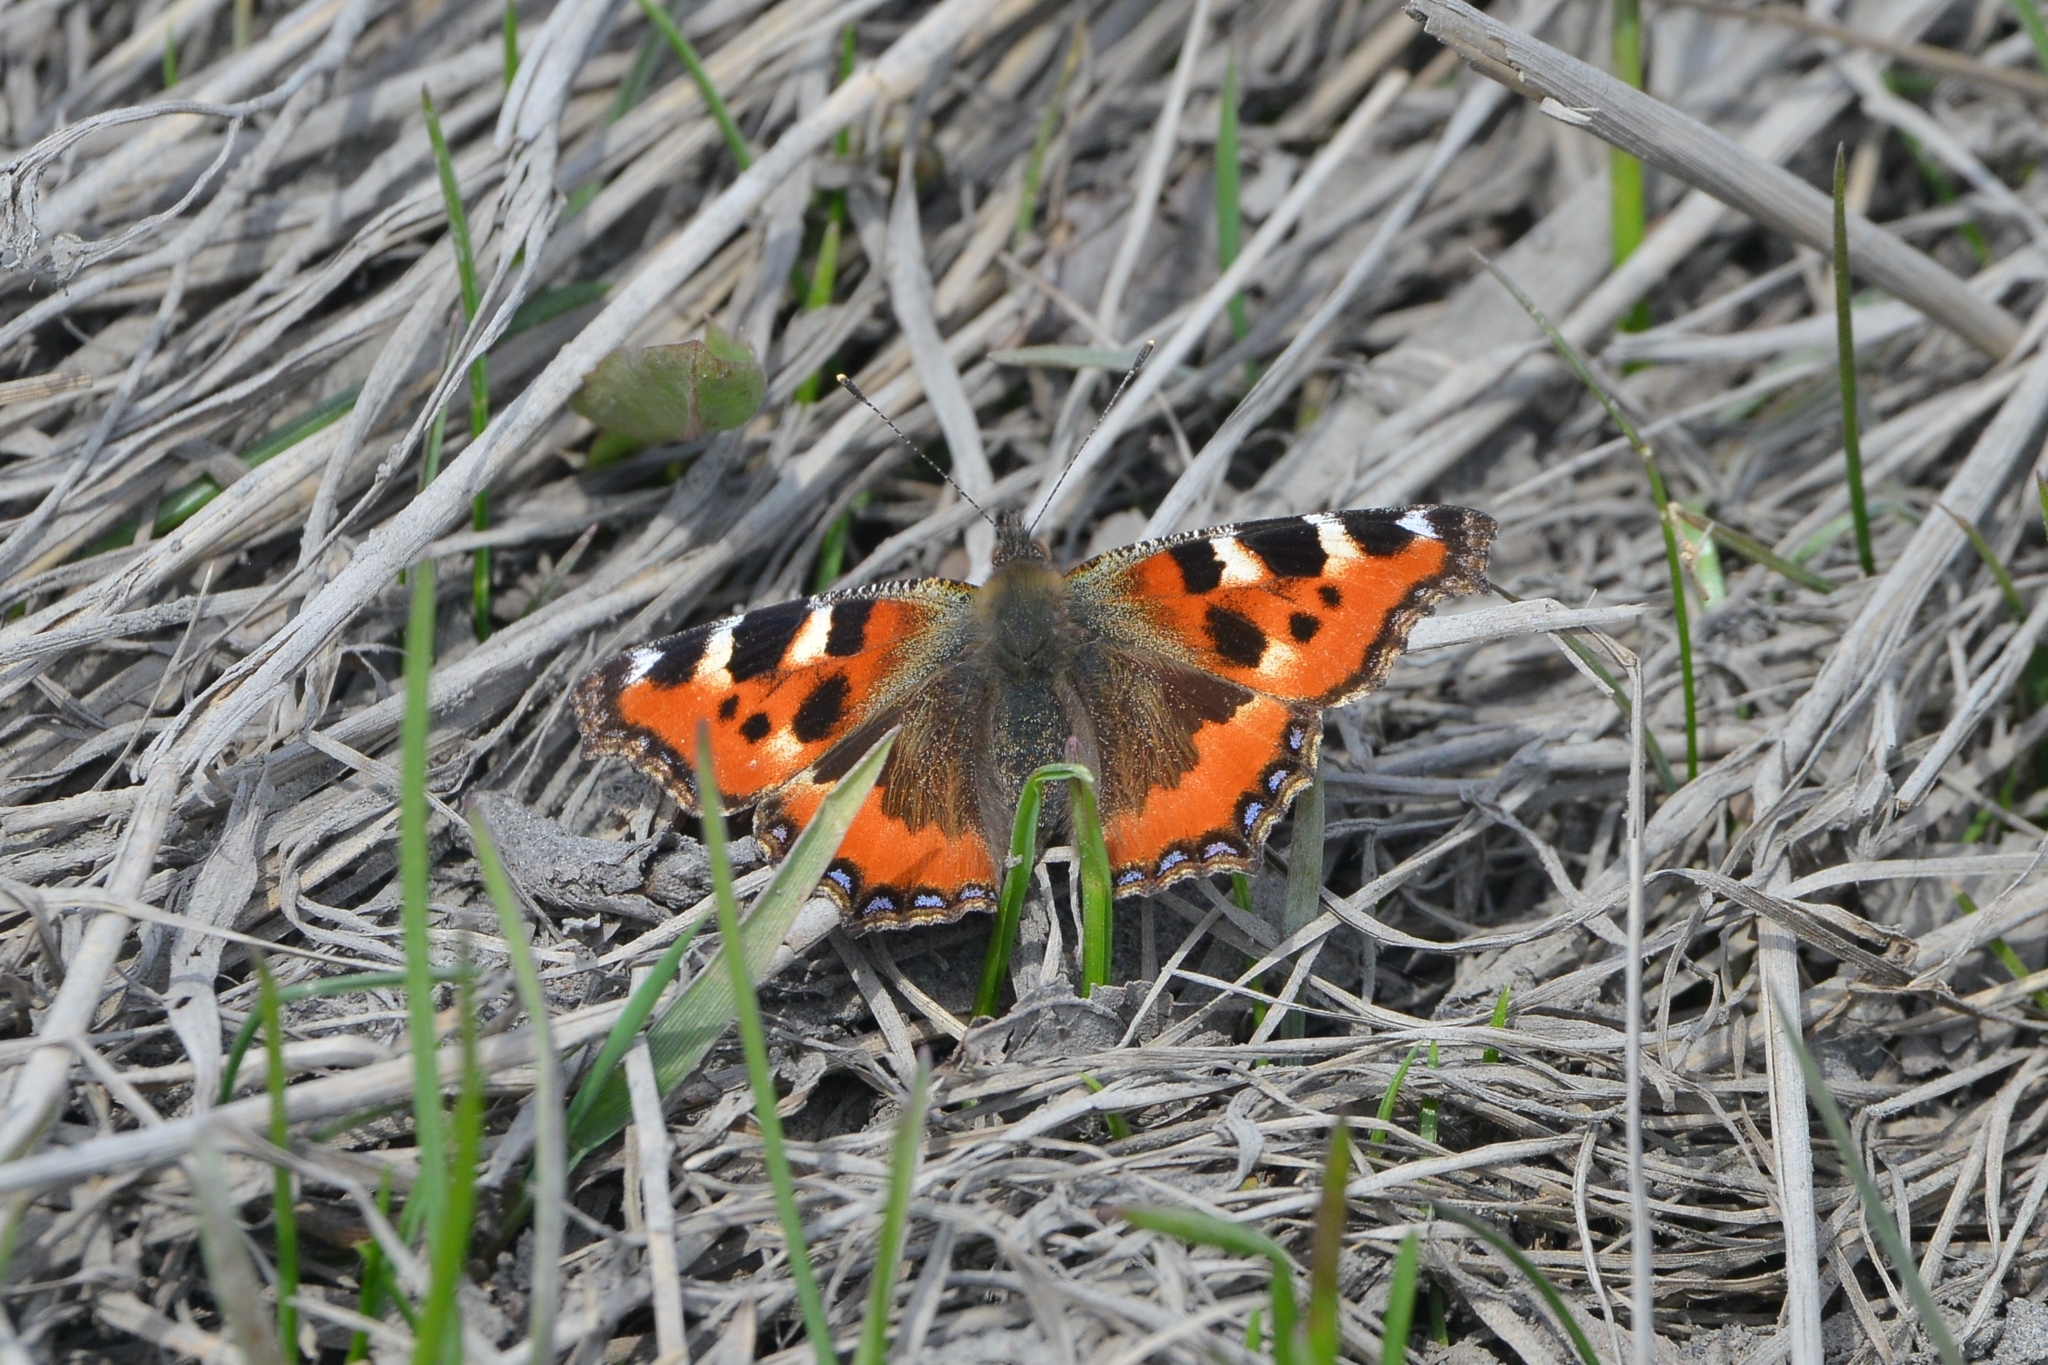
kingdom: Animalia
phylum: Arthropoda
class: Insecta
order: Lepidoptera
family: Nymphalidae
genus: Aglais
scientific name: Aglais urticae
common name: Small tortoiseshell
